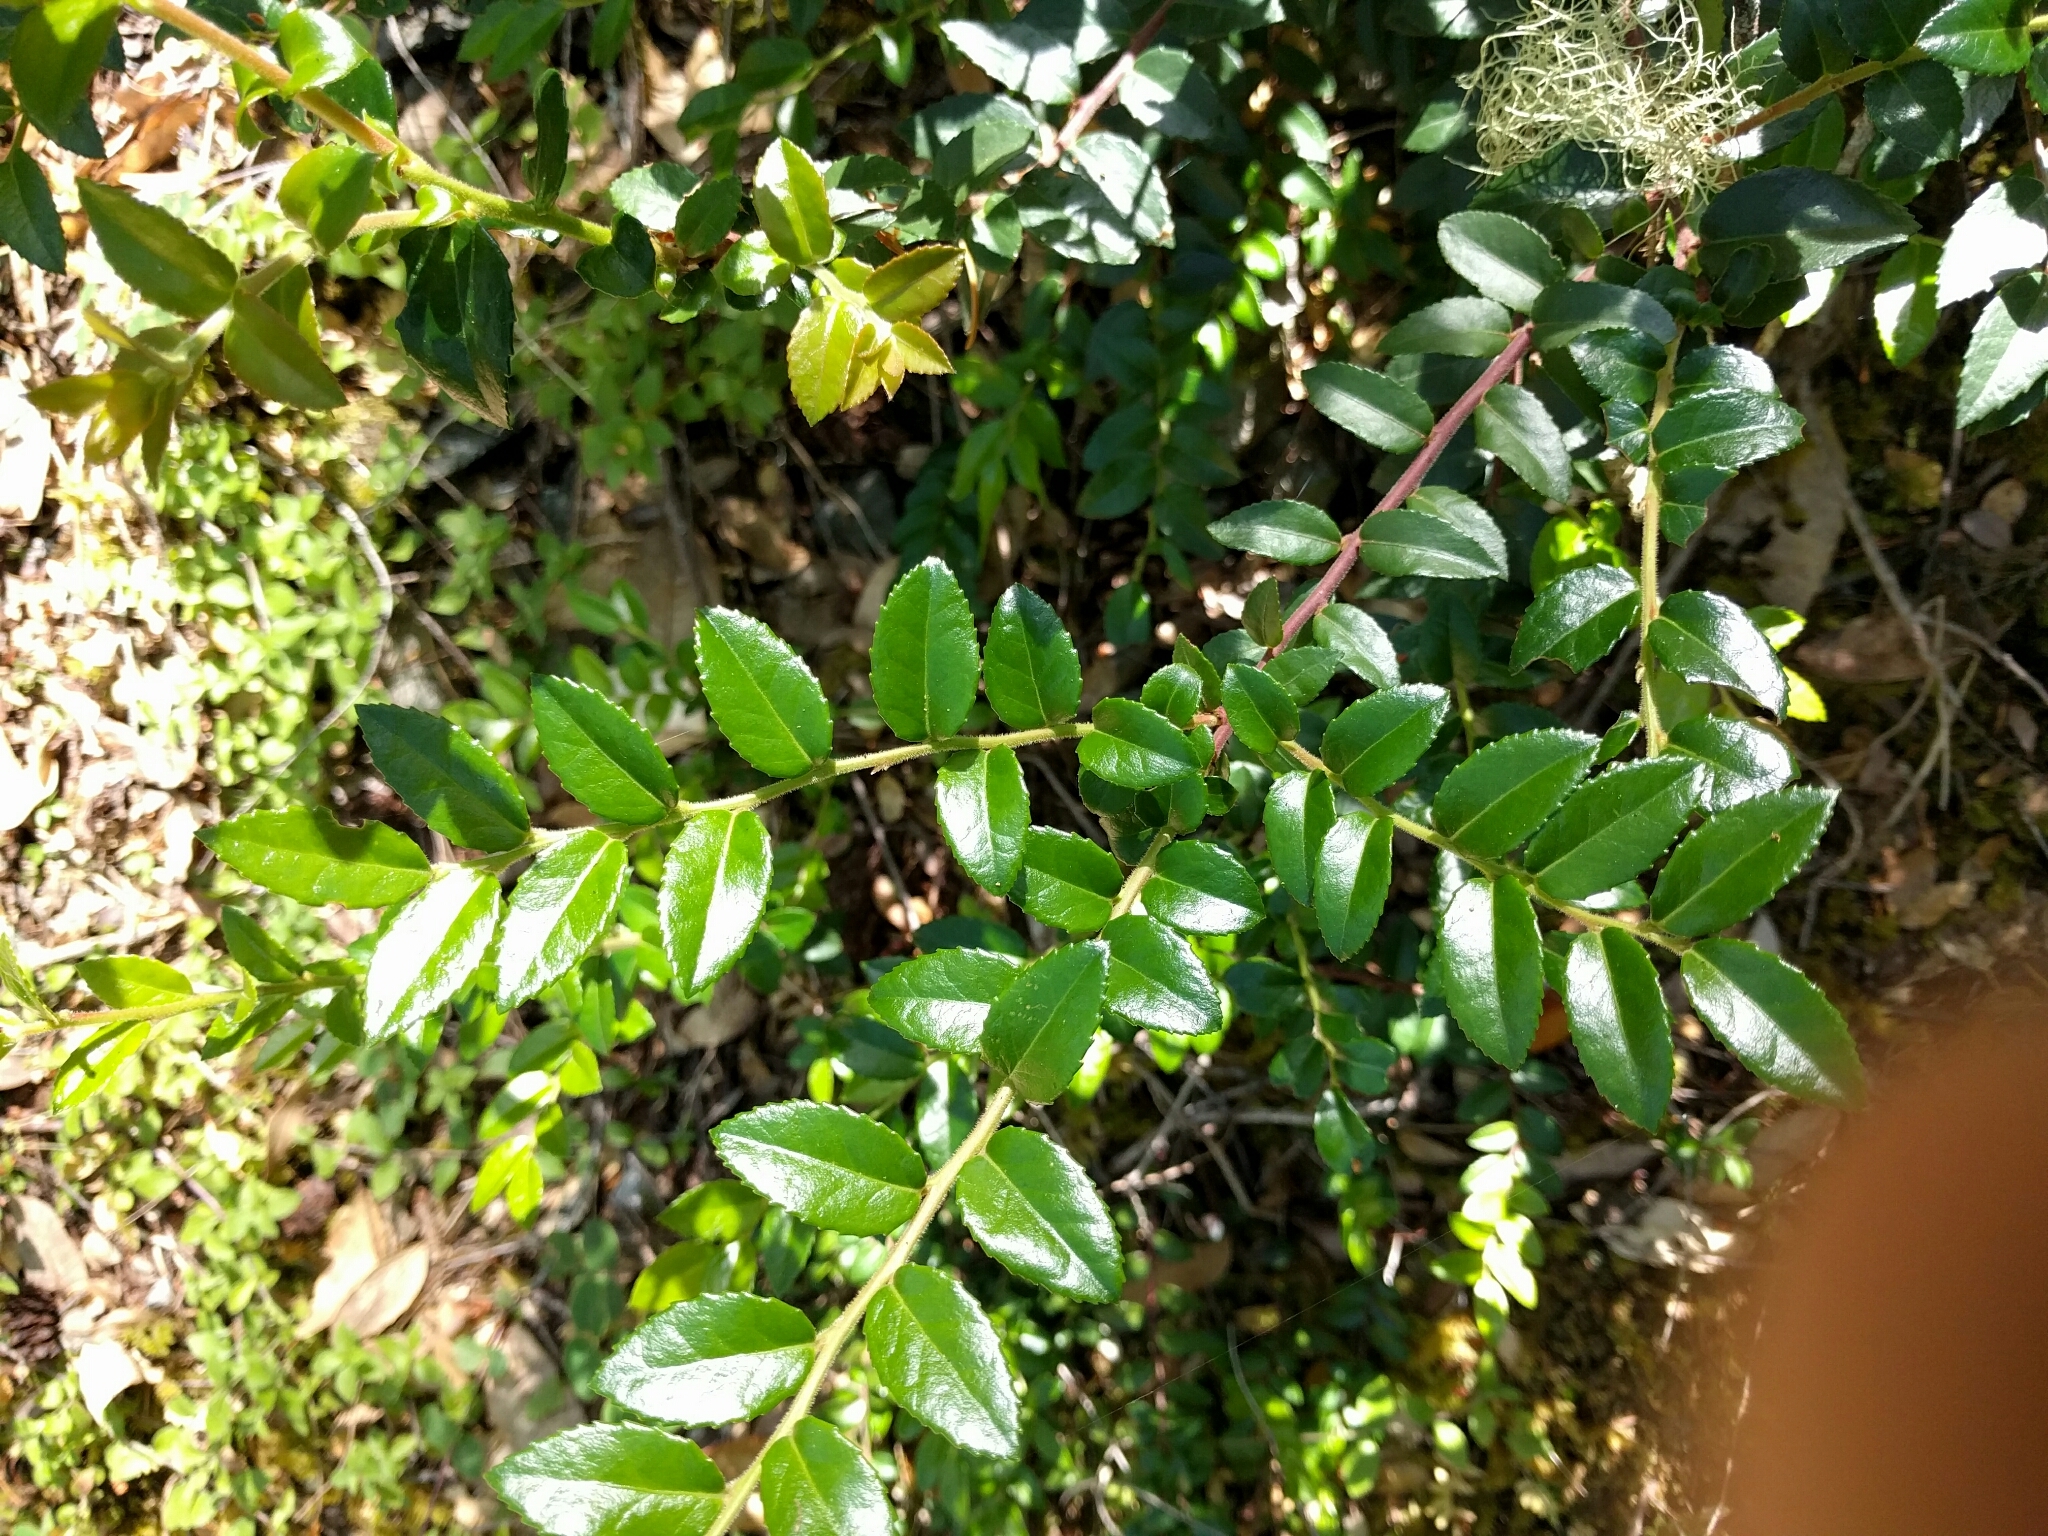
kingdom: Plantae
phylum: Tracheophyta
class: Magnoliopsida
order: Ericales
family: Ericaceae
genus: Vaccinium
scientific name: Vaccinium ovatum
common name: California-huckleberry
